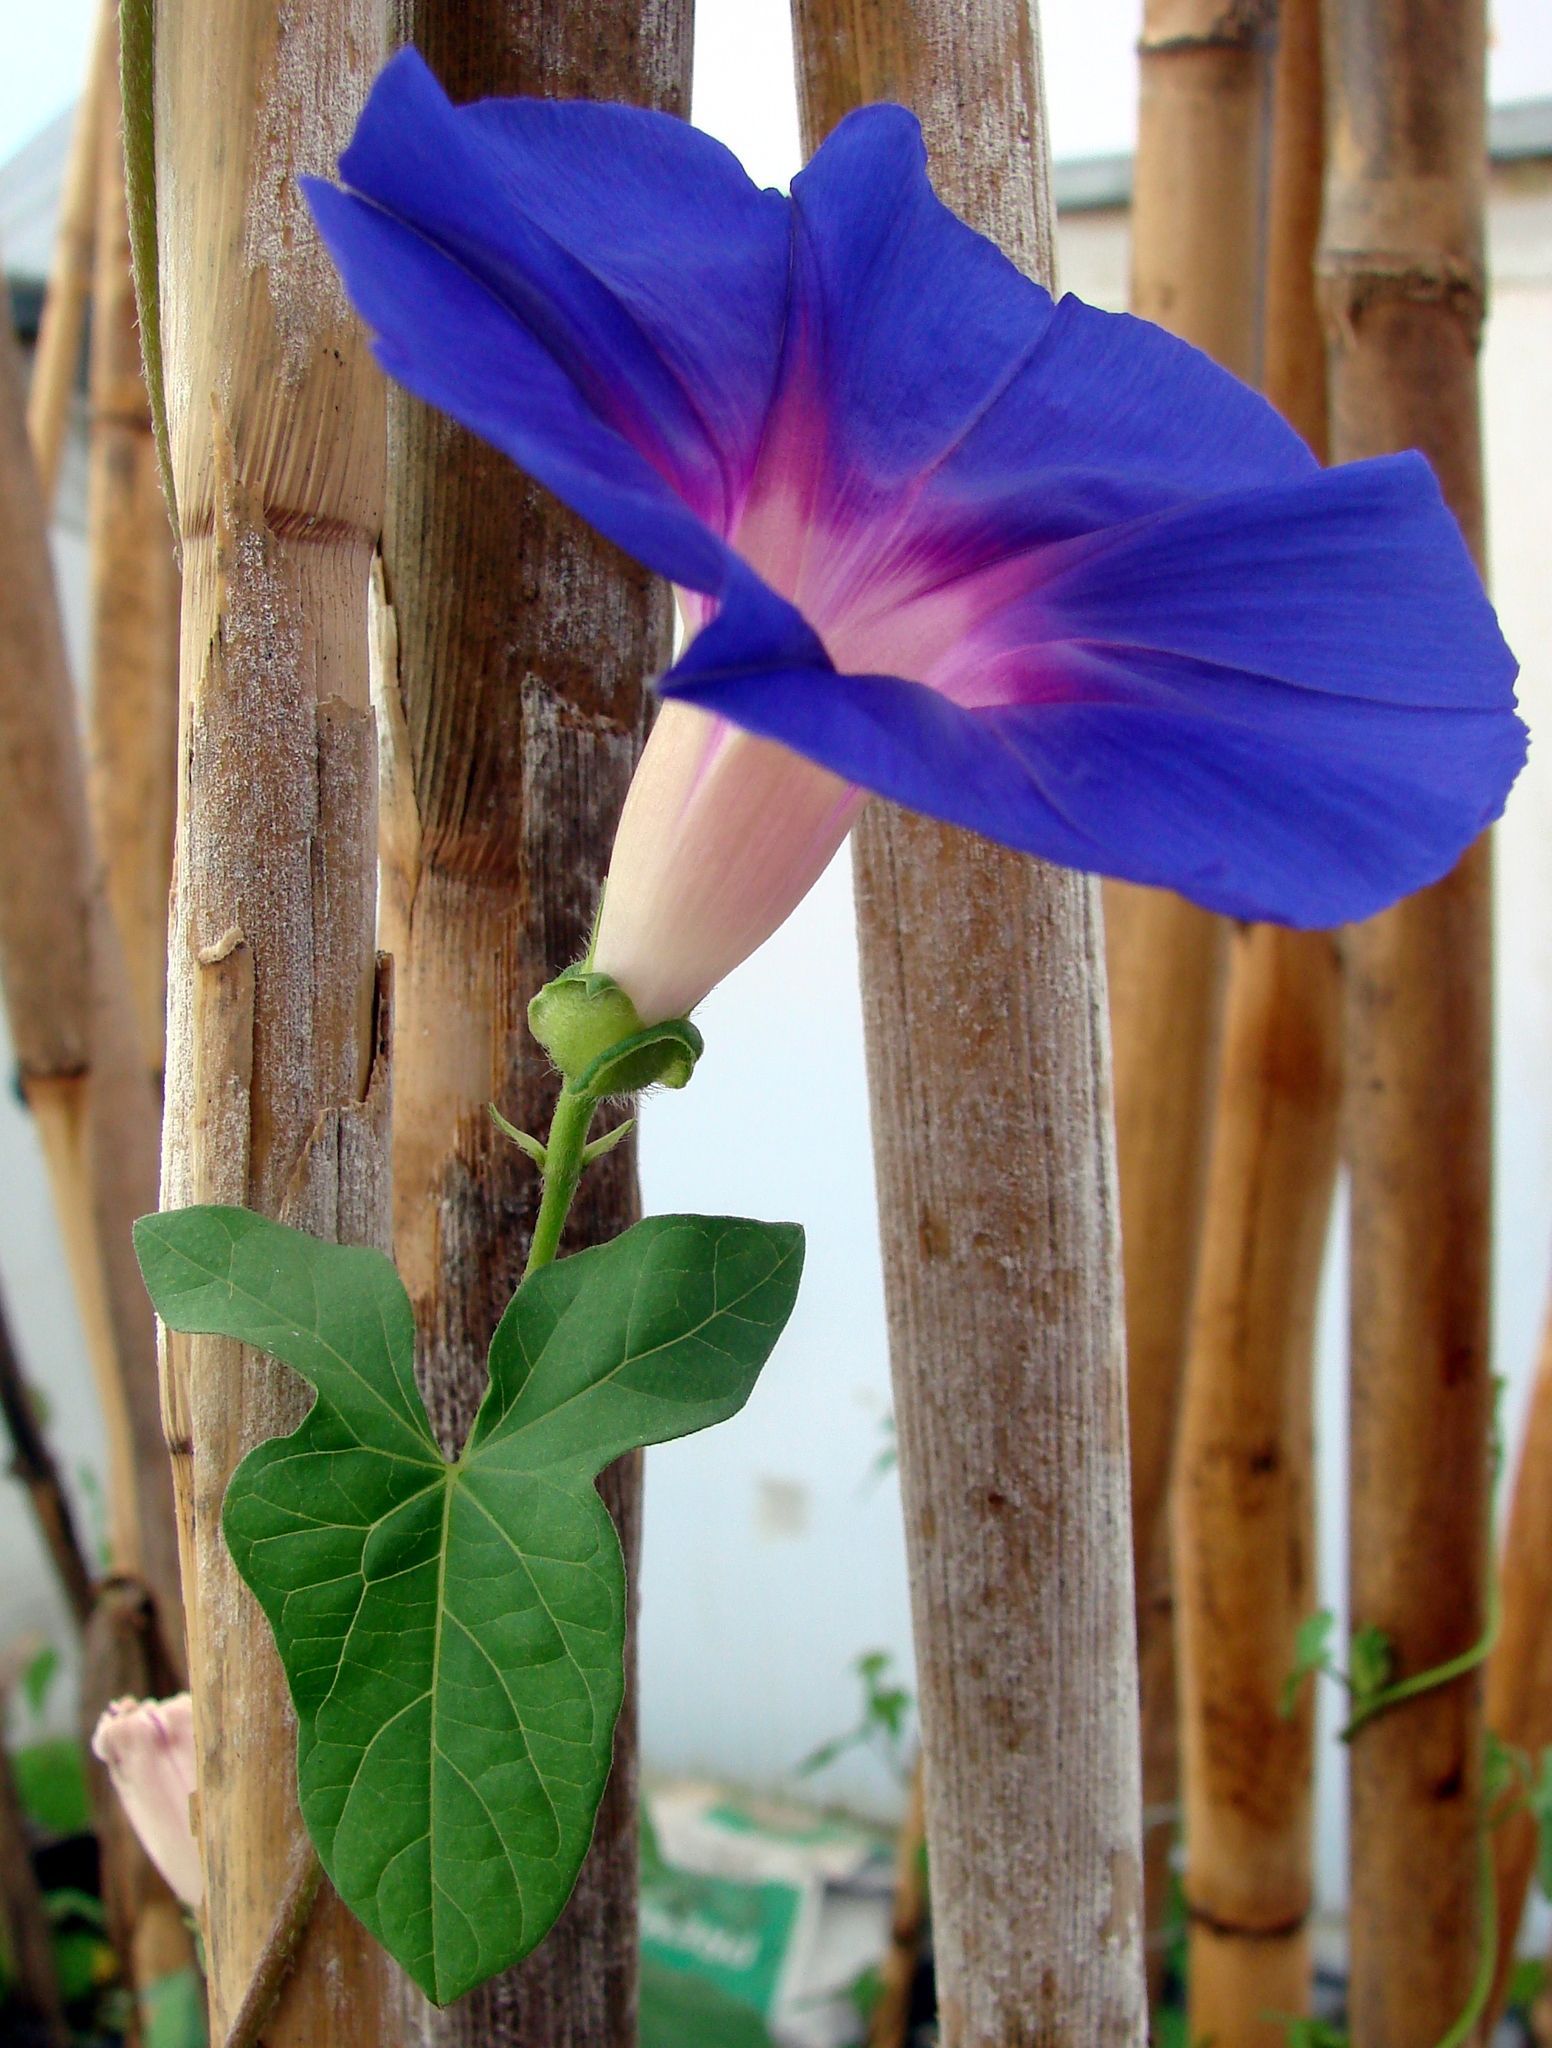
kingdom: Plantae
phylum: Tracheophyta
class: Magnoliopsida
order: Solanales
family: Convolvulaceae
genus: Ipomoea
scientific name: Ipomoea decasperma
